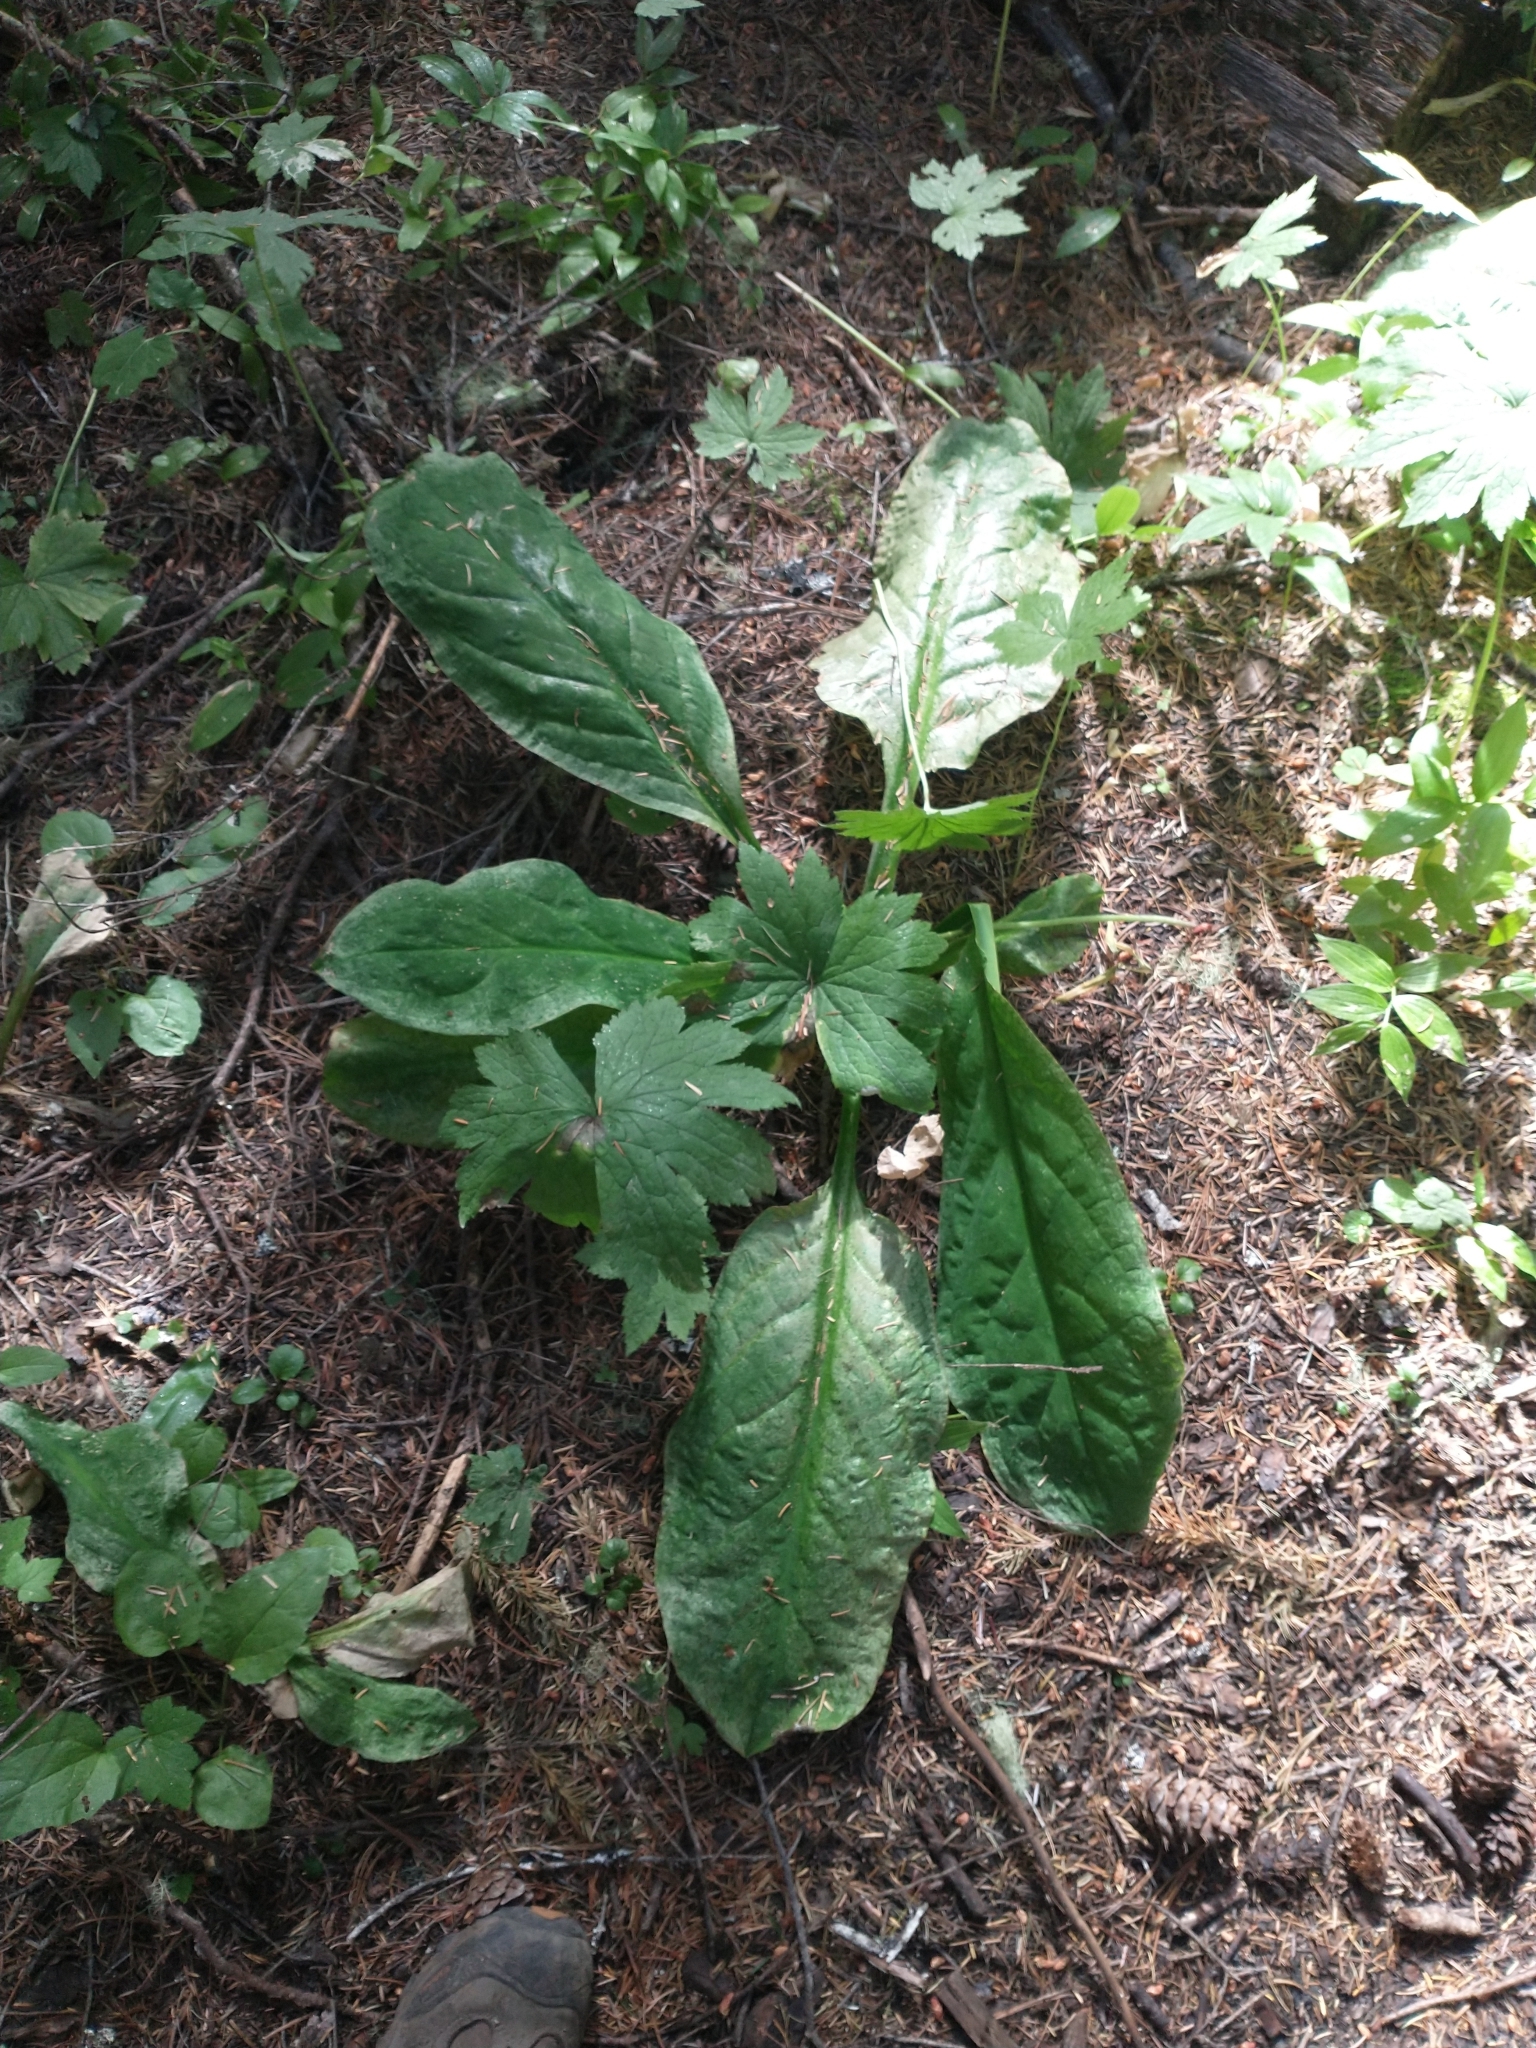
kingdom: Plantae
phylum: Tracheophyta
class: Liliopsida
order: Alismatales
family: Araceae
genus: Lysichiton
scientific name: Lysichiton americanus
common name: American skunk cabbage
